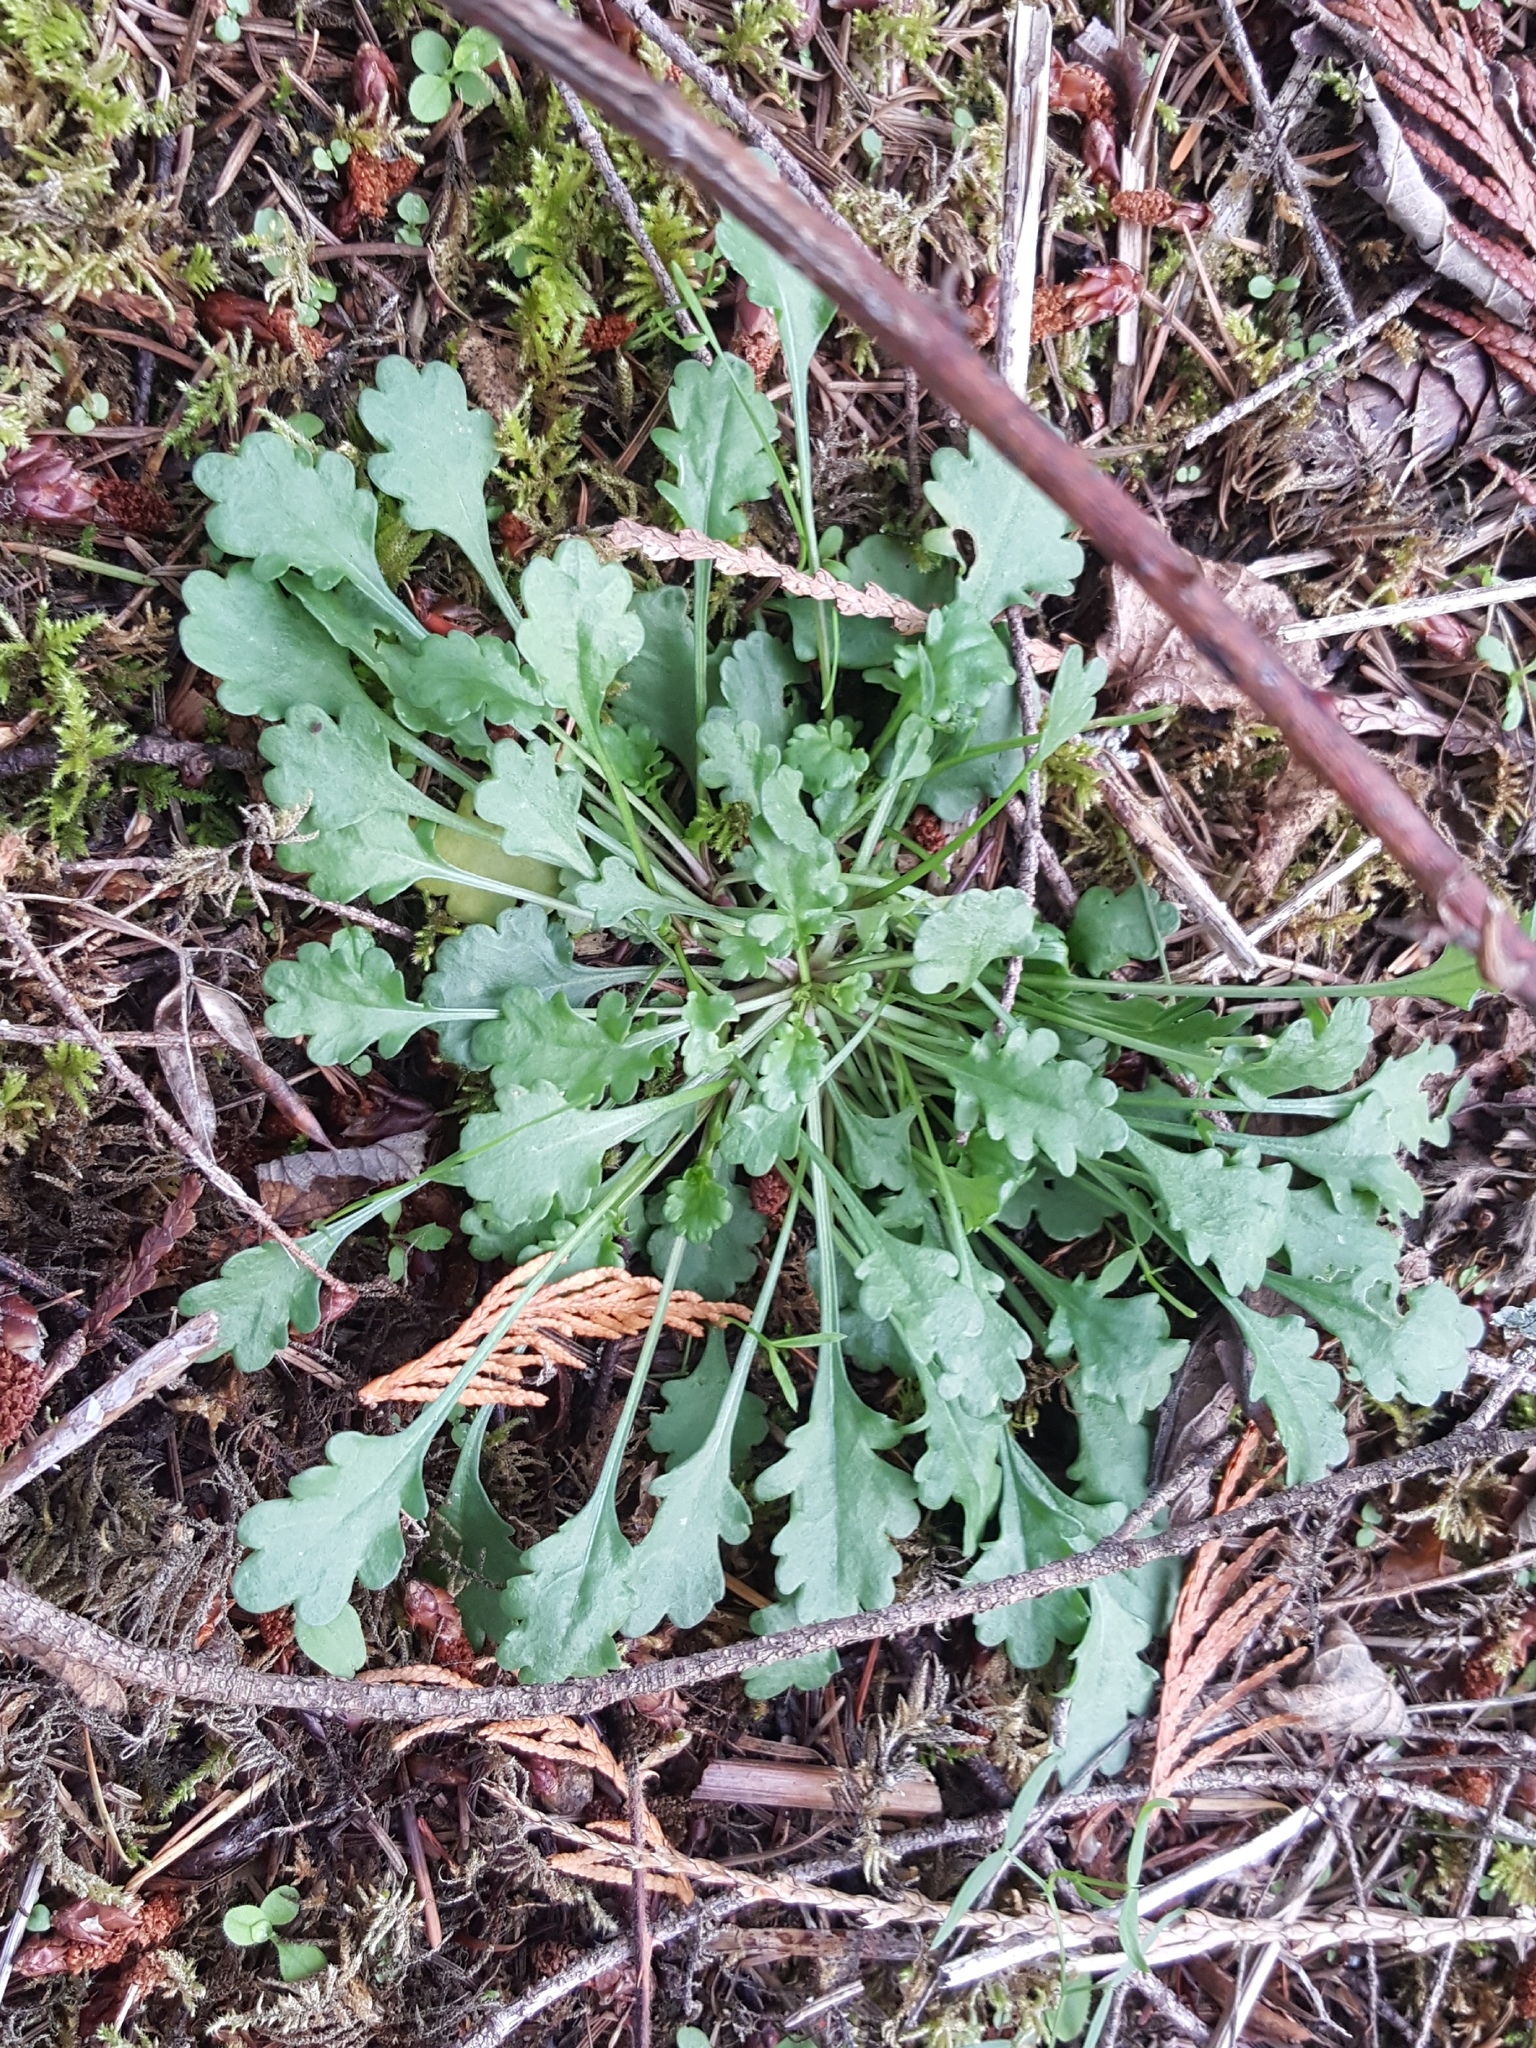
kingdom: Plantae
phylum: Tracheophyta
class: Magnoliopsida
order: Asterales
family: Asteraceae
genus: Leucanthemum
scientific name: Leucanthemum vulgare
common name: Oxeye daisy
